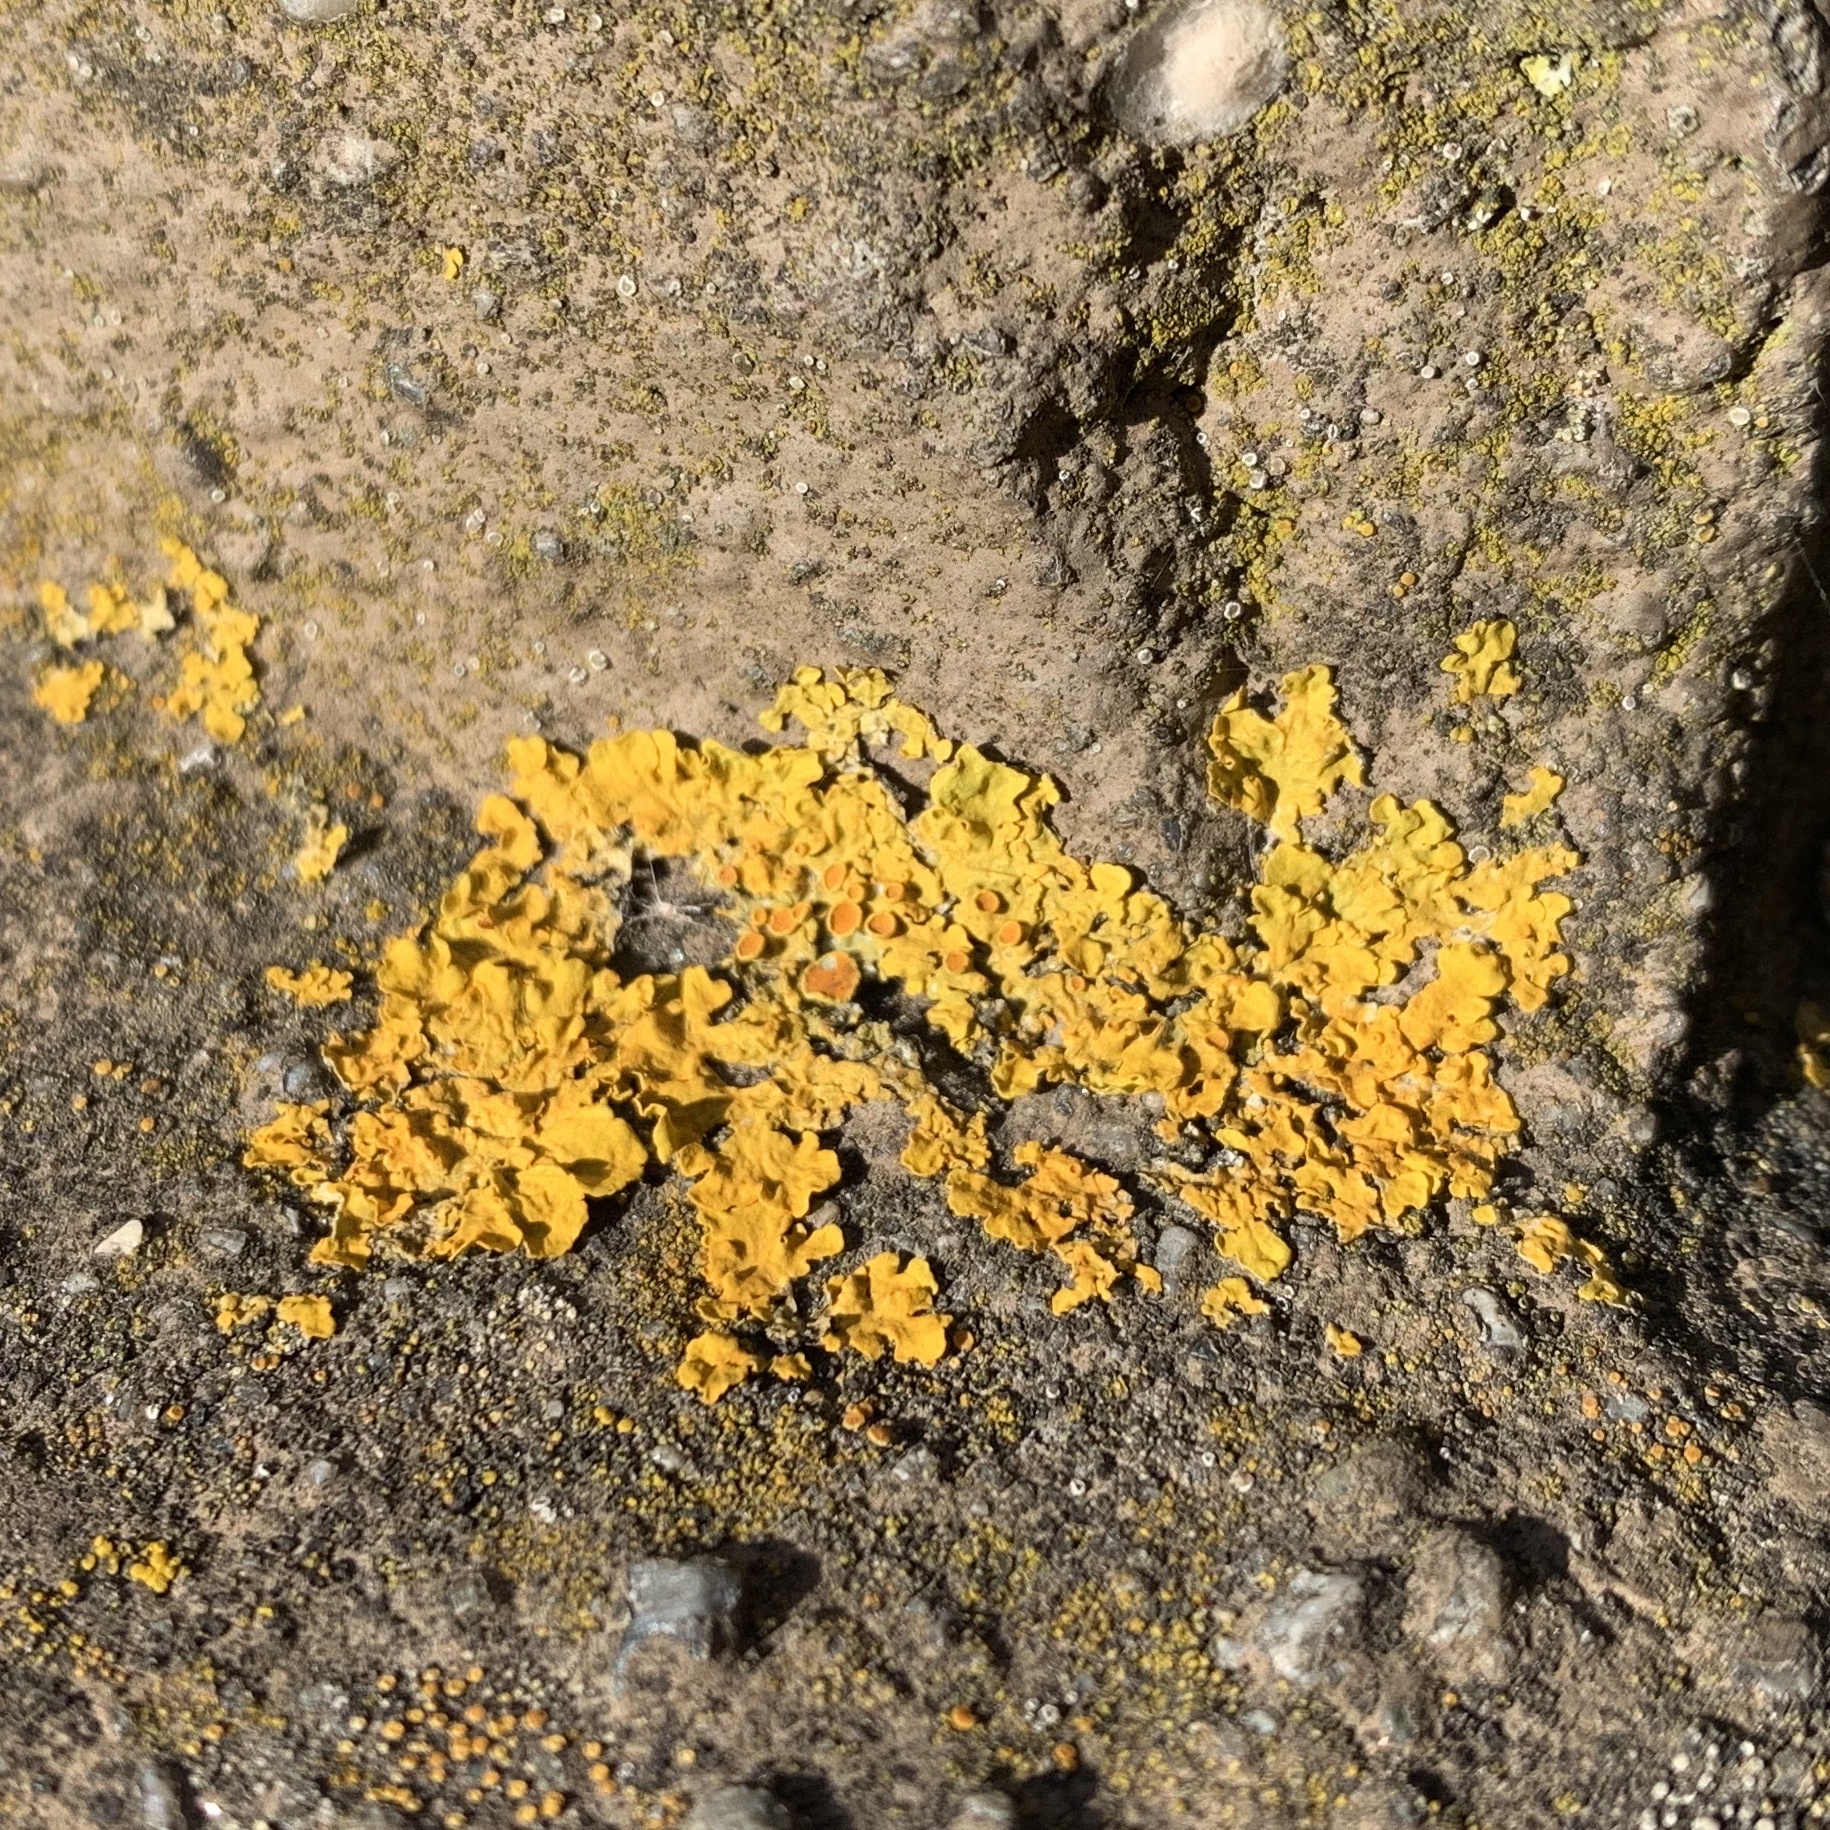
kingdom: Fungi
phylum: Ascomycota
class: Lecanoromycetes
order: Teloschistales
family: Teloschistaceae
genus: Xanthoria
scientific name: Xanthoria parietina
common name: Common orange lichen
